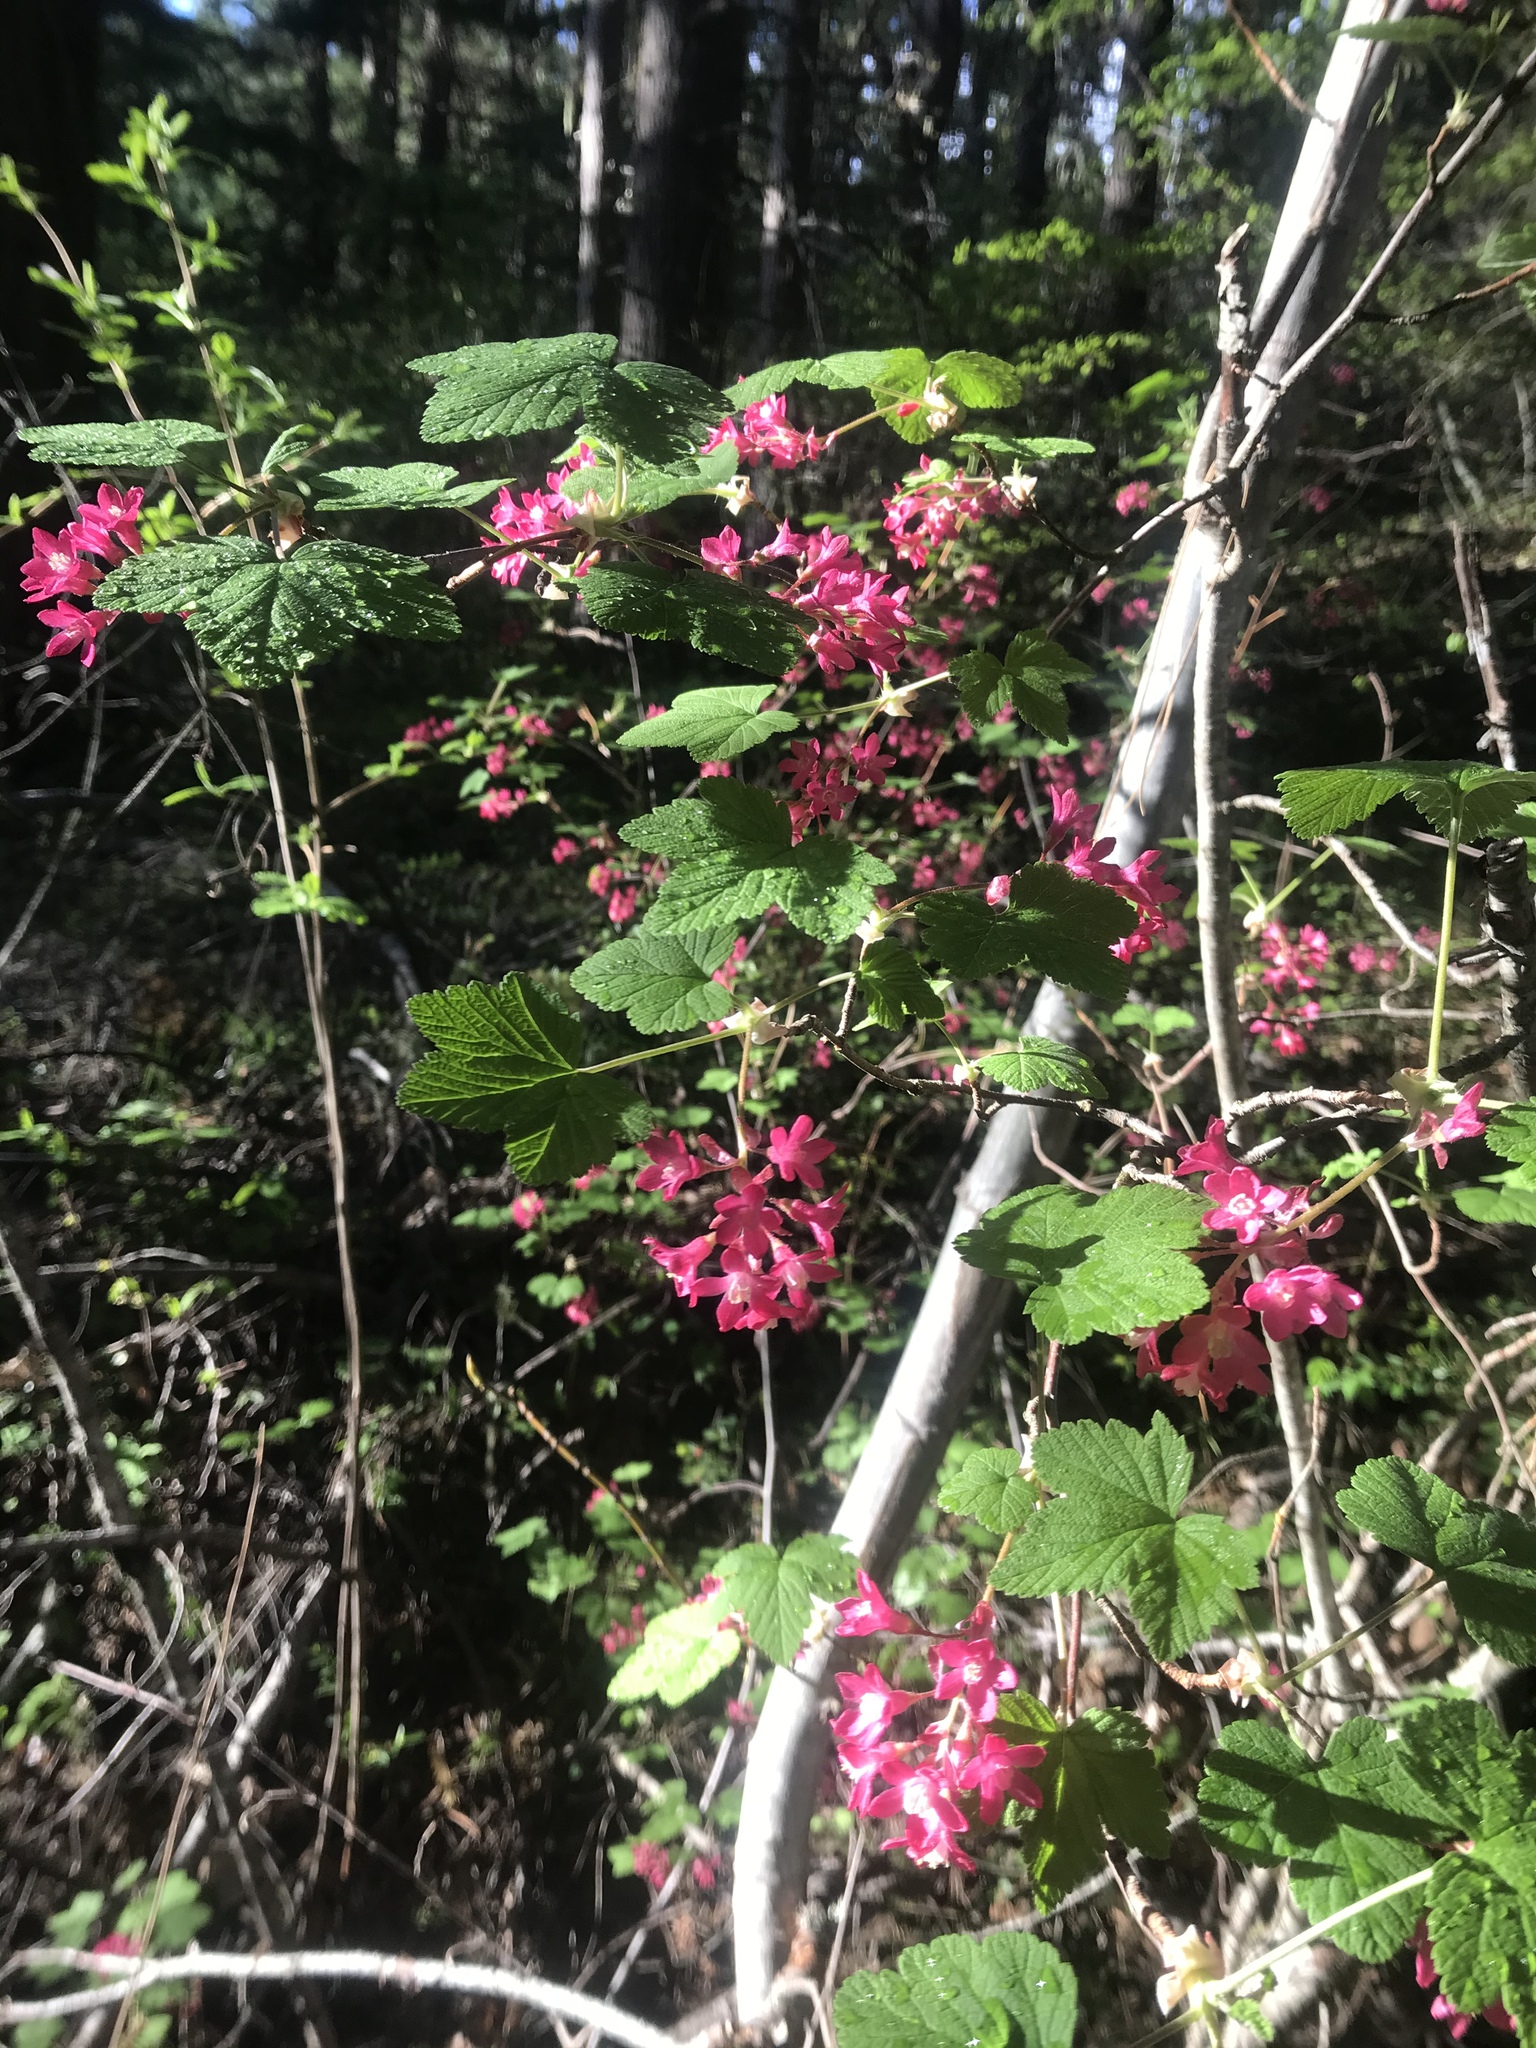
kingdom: Plantae
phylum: Tracheophyta
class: Magnoliopsida
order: Saxifragales
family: Grossulariaceae
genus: Ribes
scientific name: Ribes sanguineum
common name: Flowering currant
